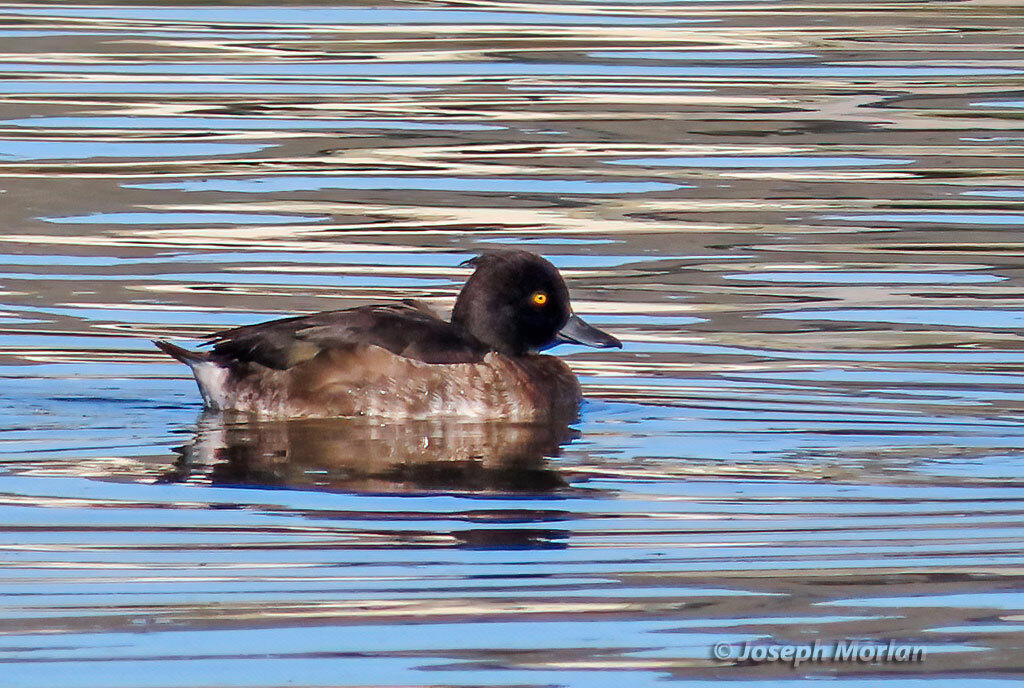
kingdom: Animalia
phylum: Chordata
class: Aves
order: Anseriformes
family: Anatidae
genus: Aythya
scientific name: Aythya fuligula
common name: Tufted duck
